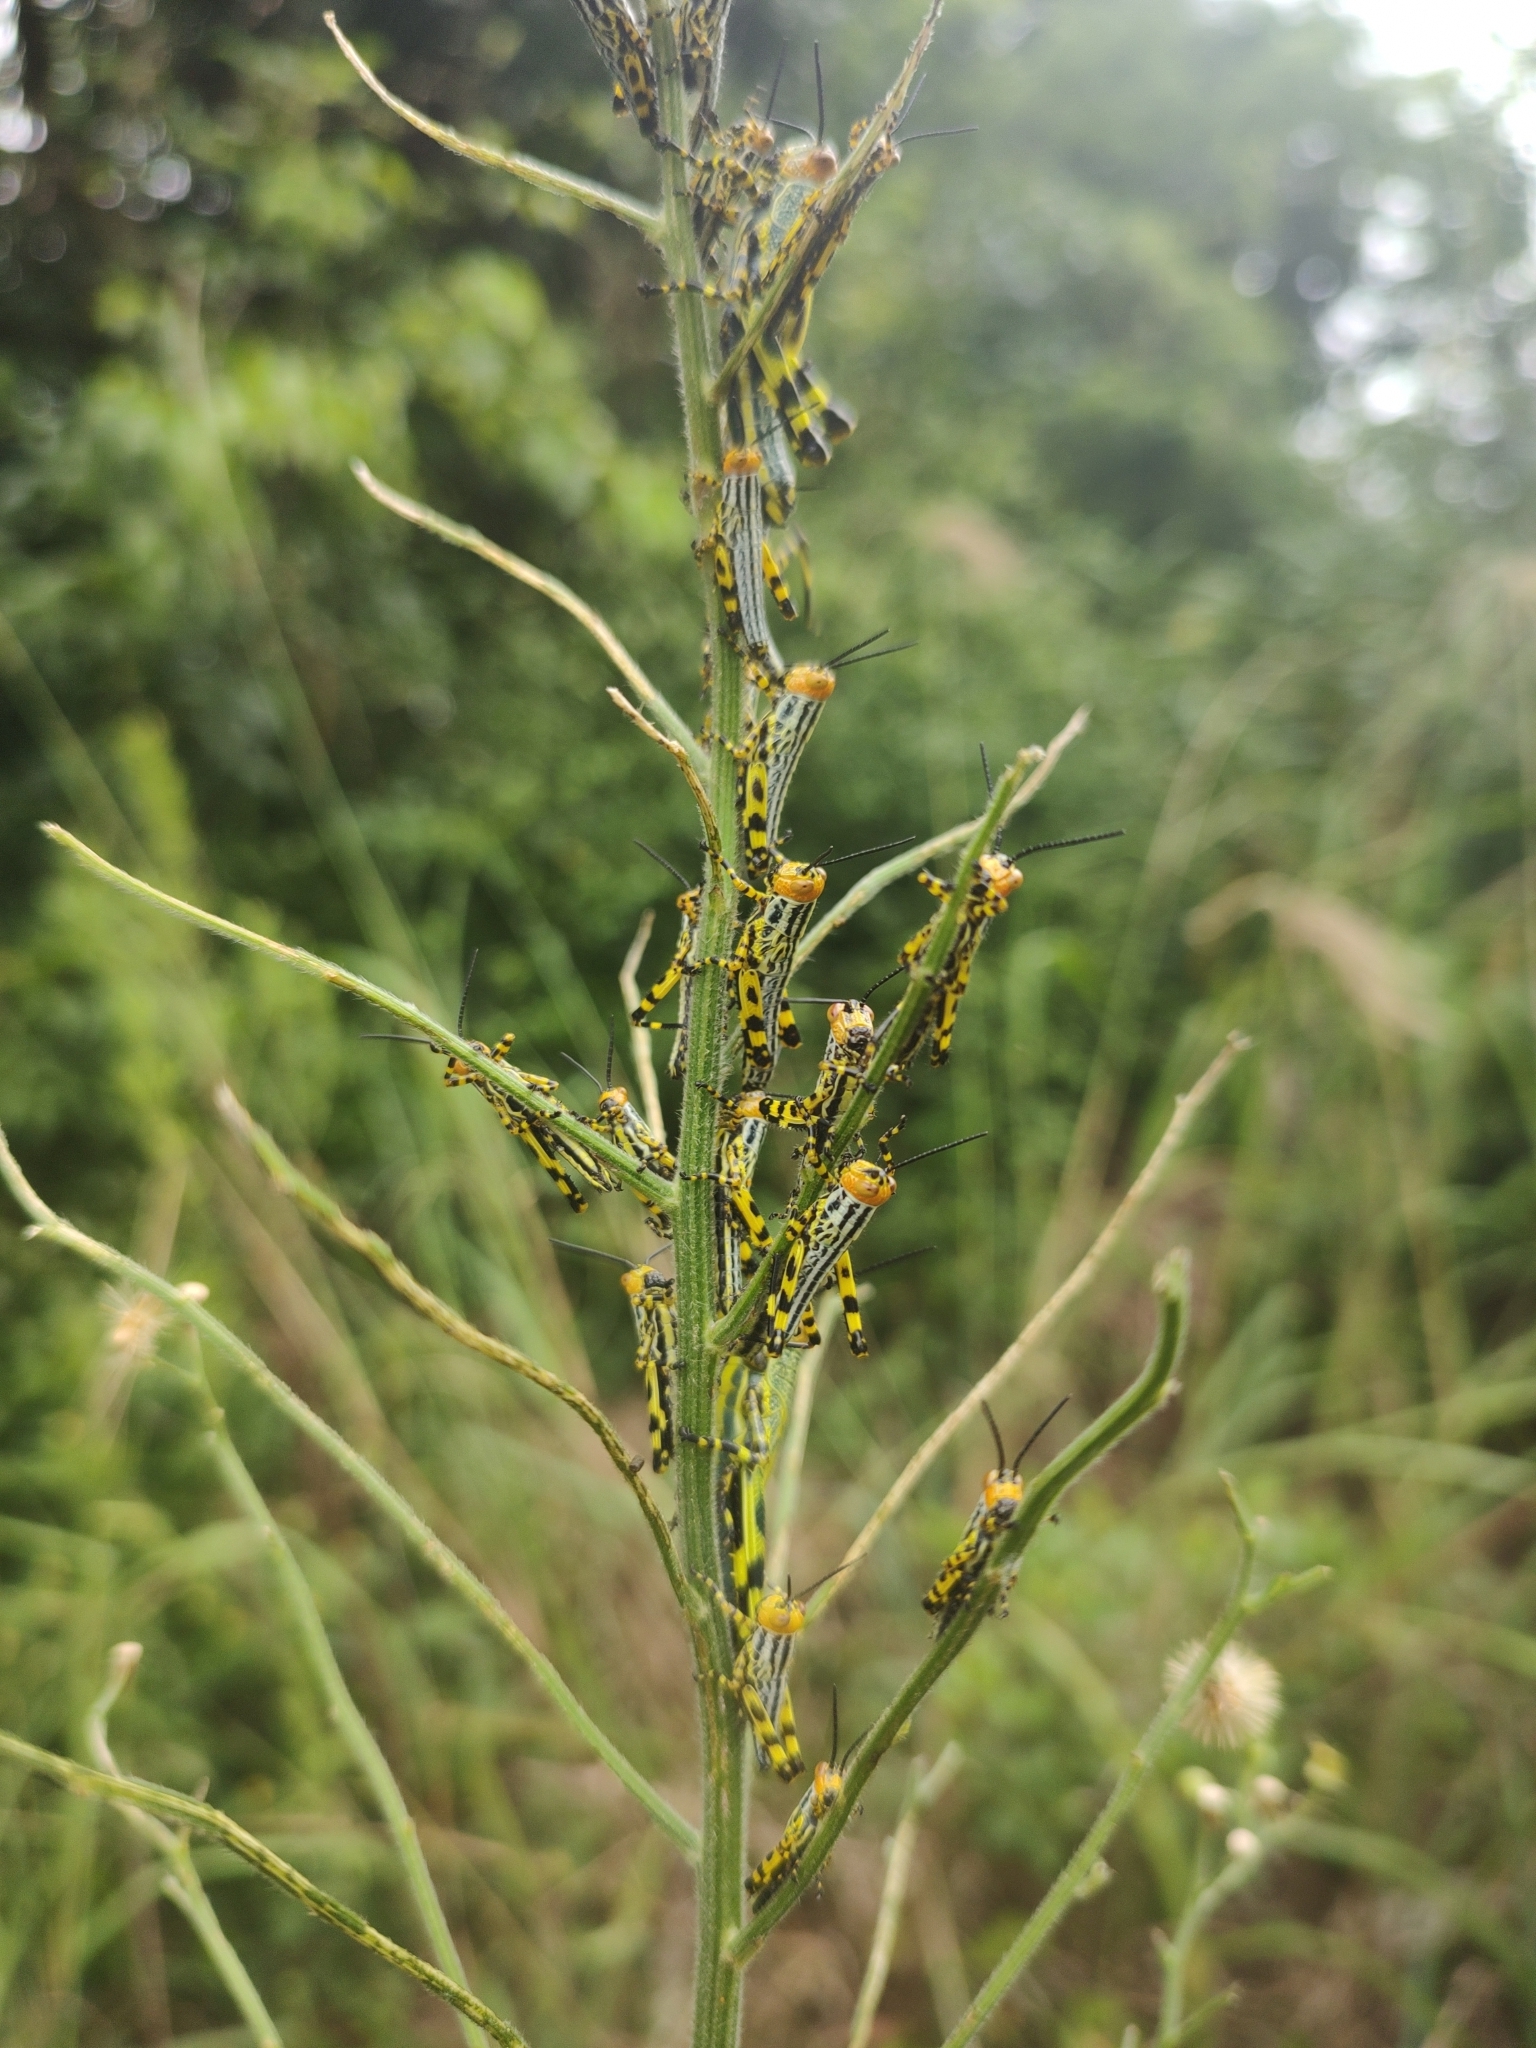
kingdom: Animalia
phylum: Arthropoda
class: Insecta
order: Orthoptera
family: Romaleidae
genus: Zoniopoda
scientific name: Zoniopoda tarsata
